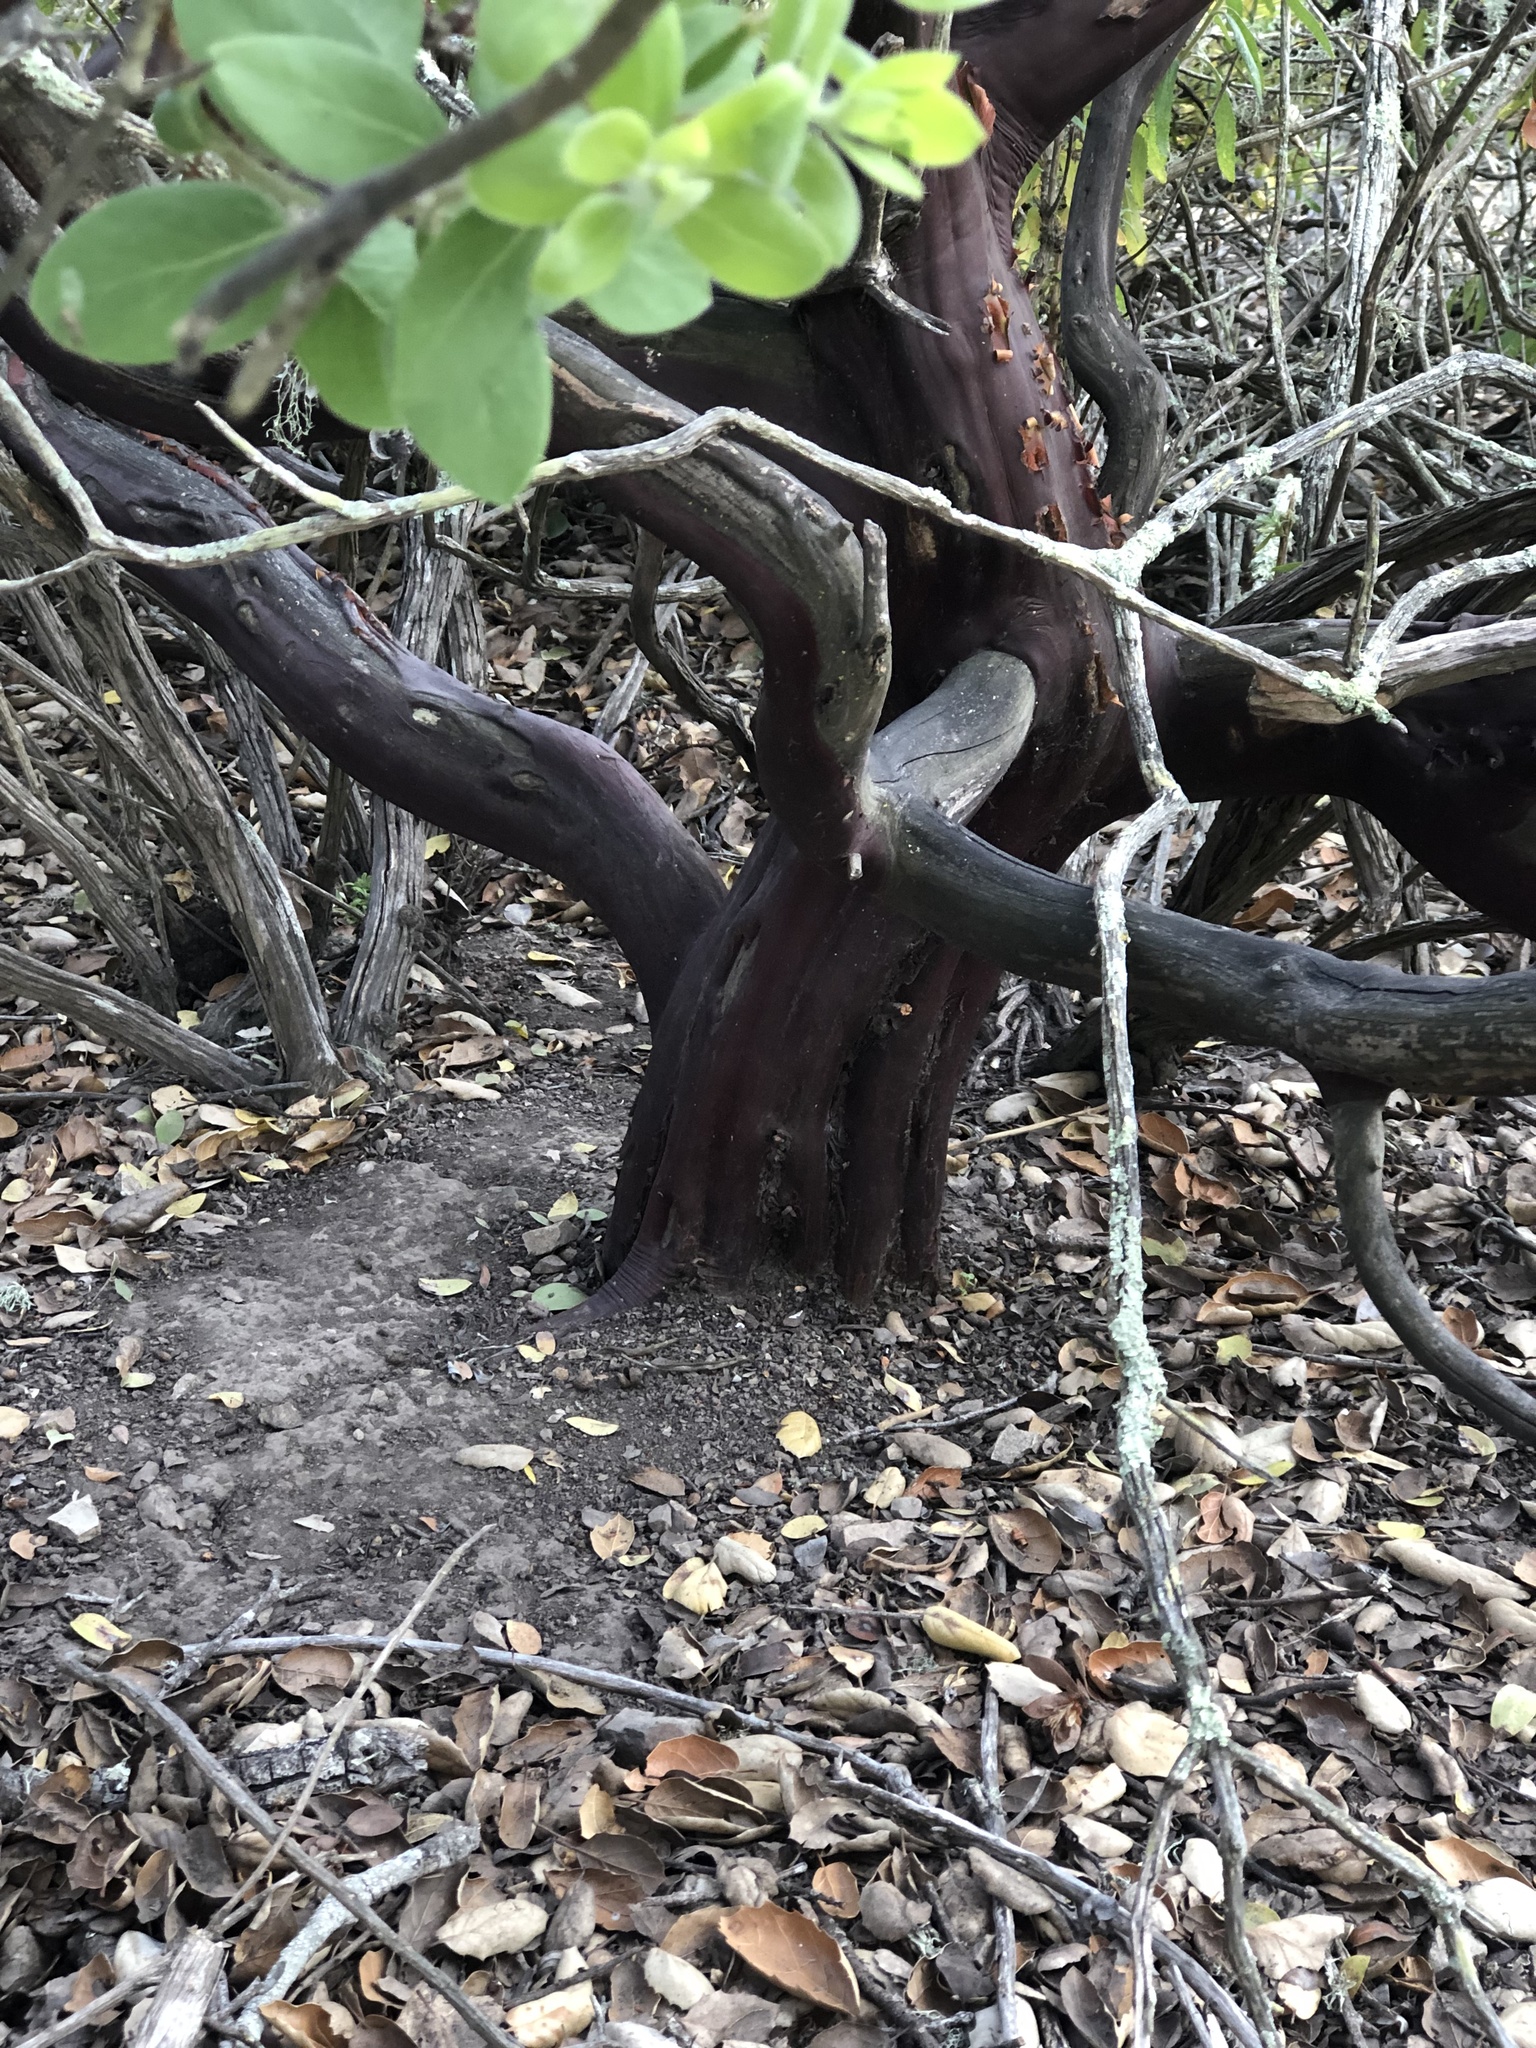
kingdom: Plantae
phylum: Tracheophyta
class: Magnoliopsida
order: Ericales
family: Ericaceae
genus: Arctostaphylos
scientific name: Arctostaphylos pilosula
